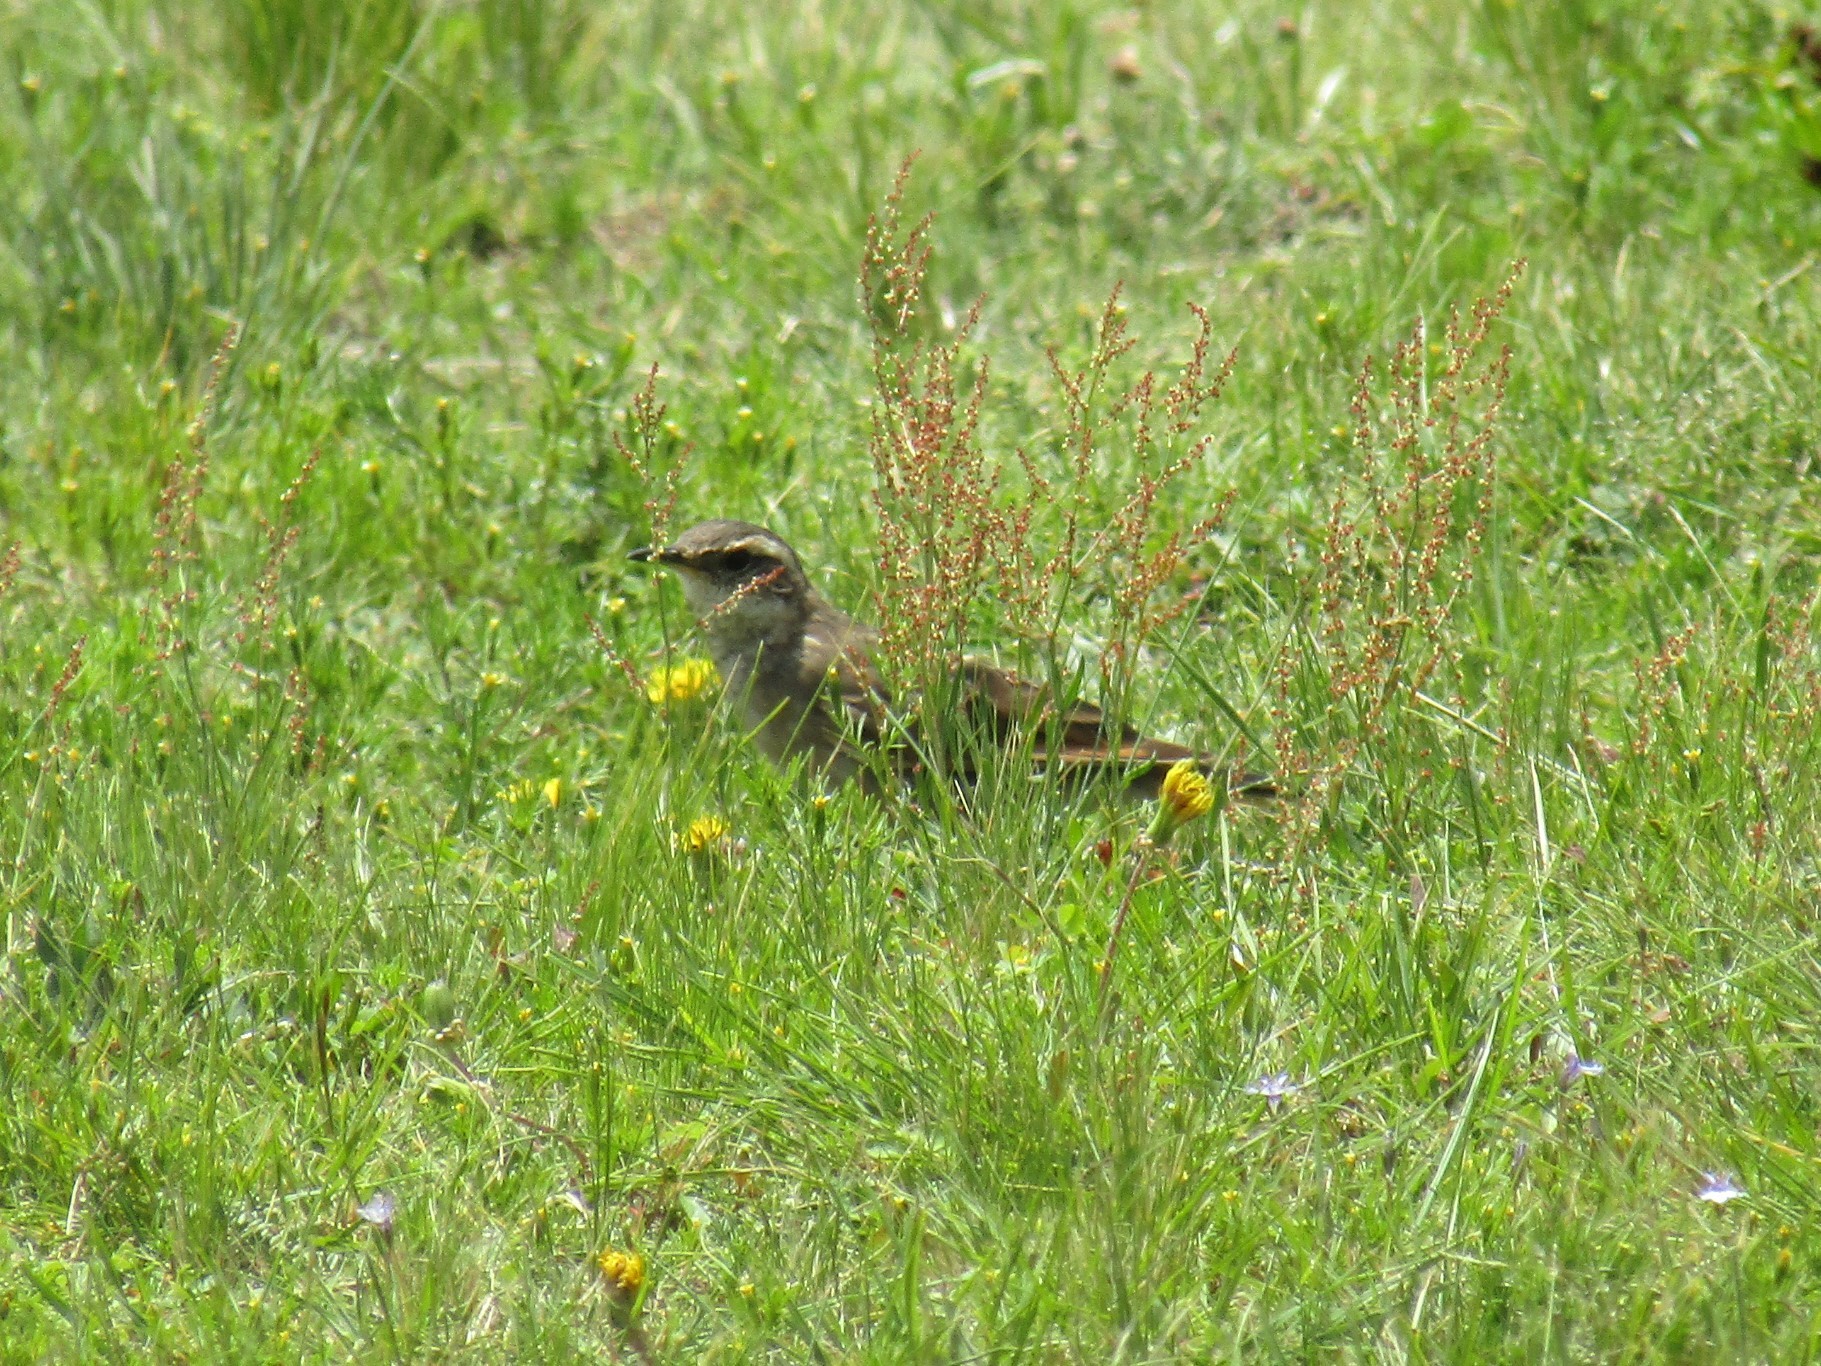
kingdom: Animalia
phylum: Chordata
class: Aves
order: Passeriformes
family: Furnariidae
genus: Cinclodes
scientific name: Cinclodes comechingonus
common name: Cordoba cinclodes
